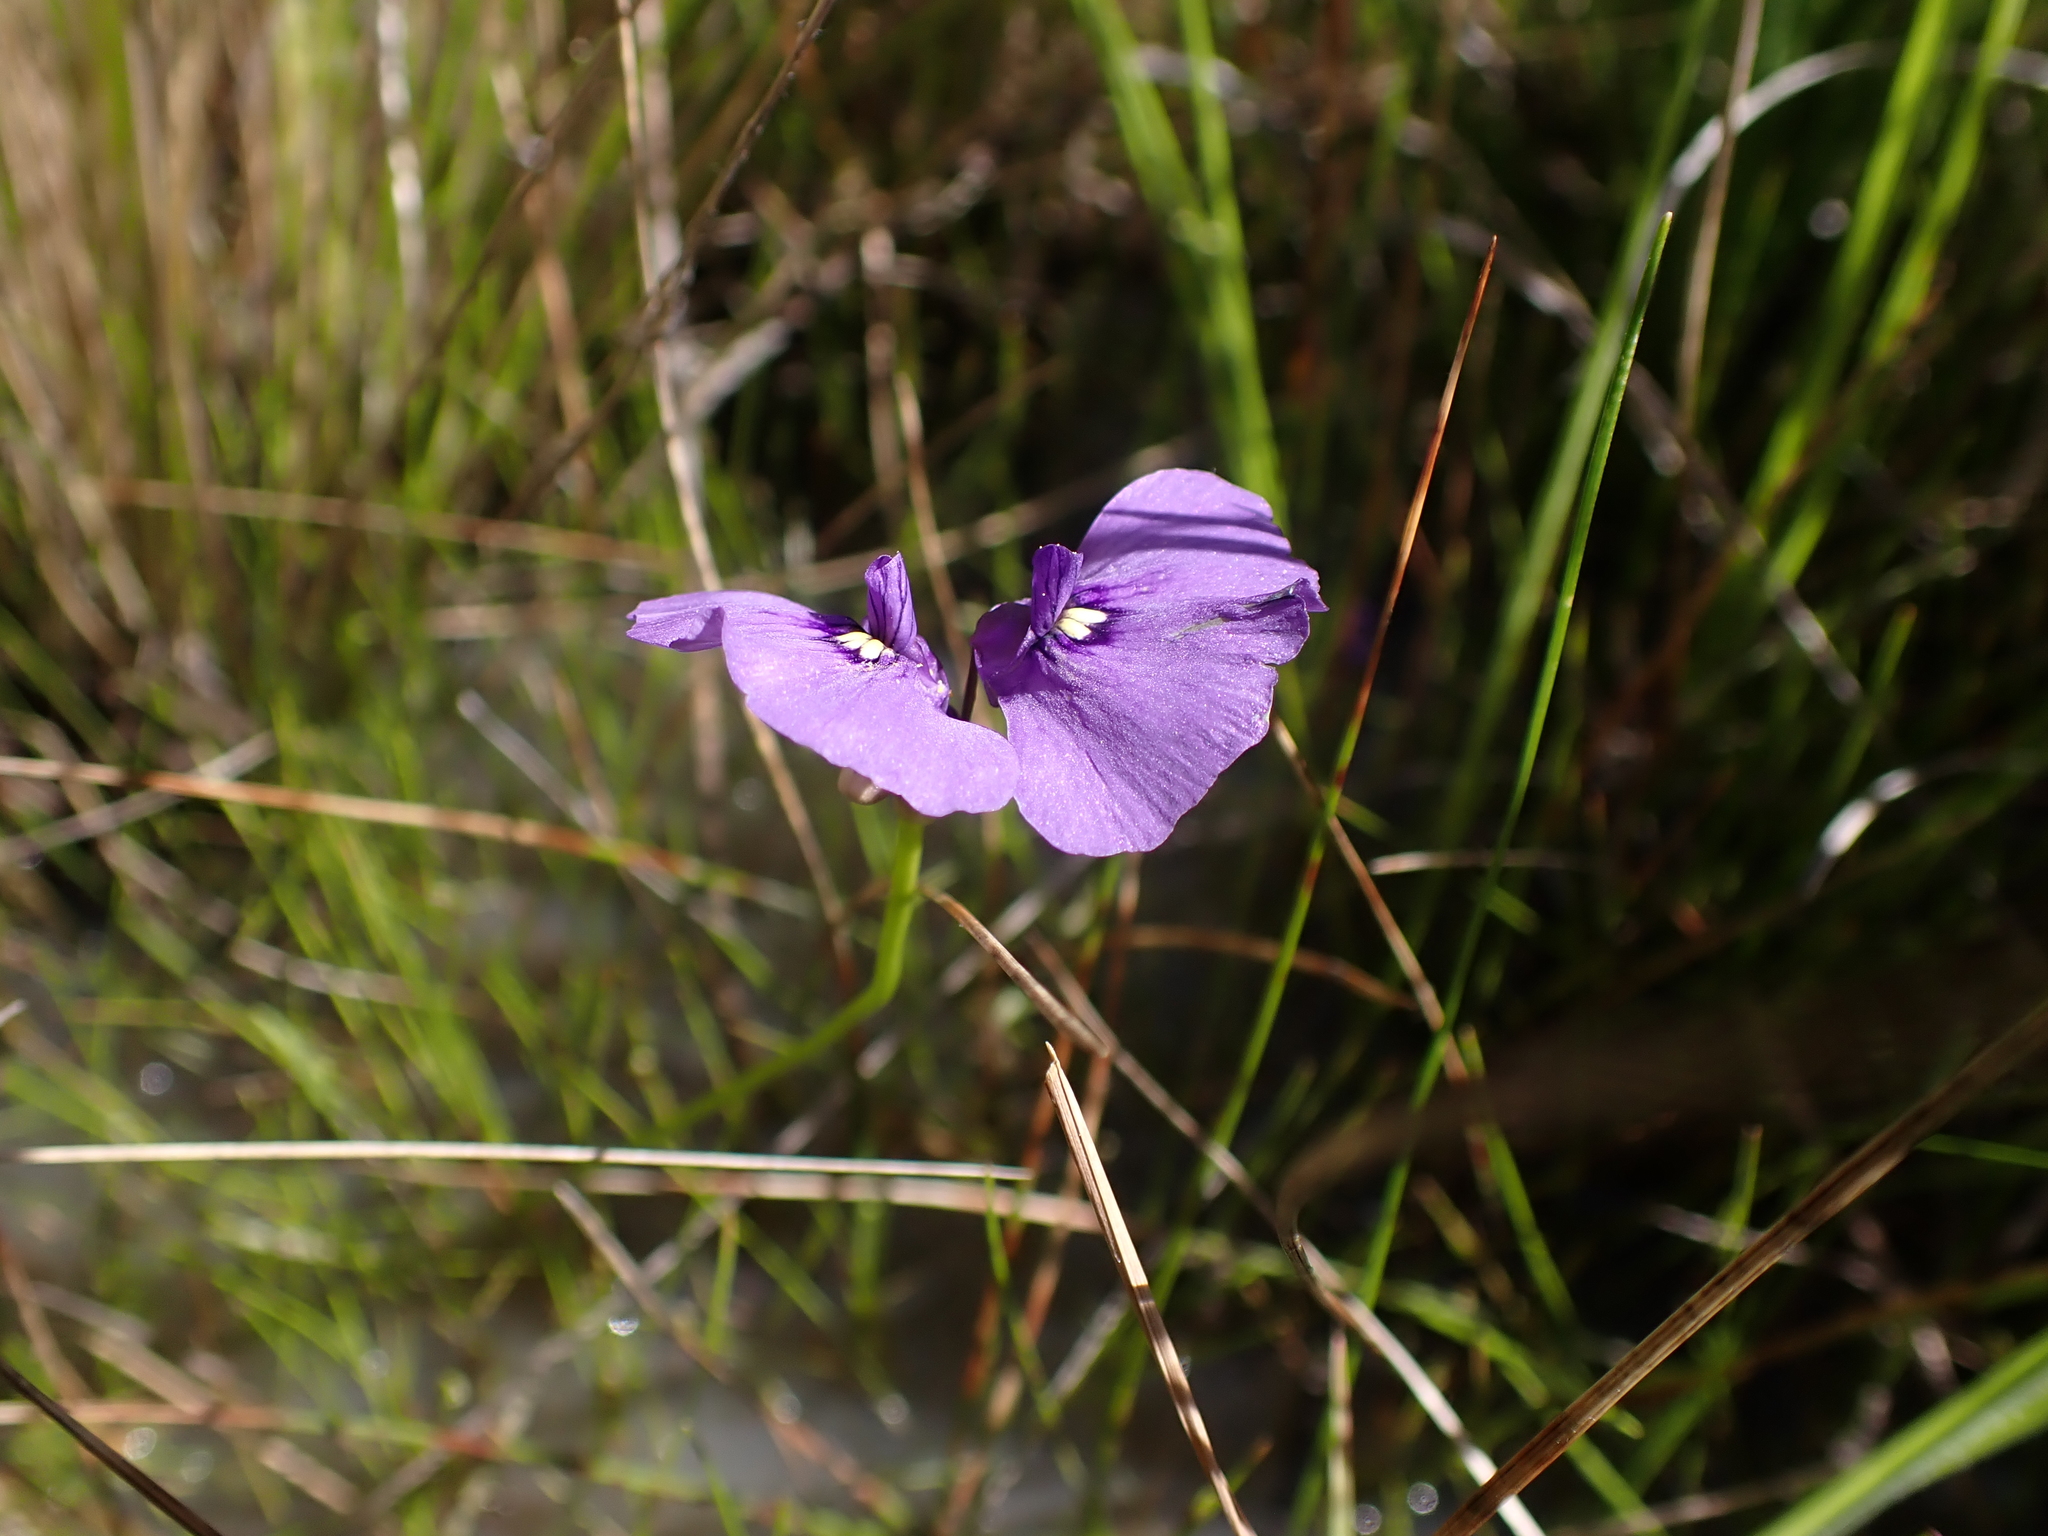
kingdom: Plantae
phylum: Tracheophyta
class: Magnoliopsida
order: Lamiales
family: Lentibulariaceae
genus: Utricularia
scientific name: Utricularia beaugleholei
